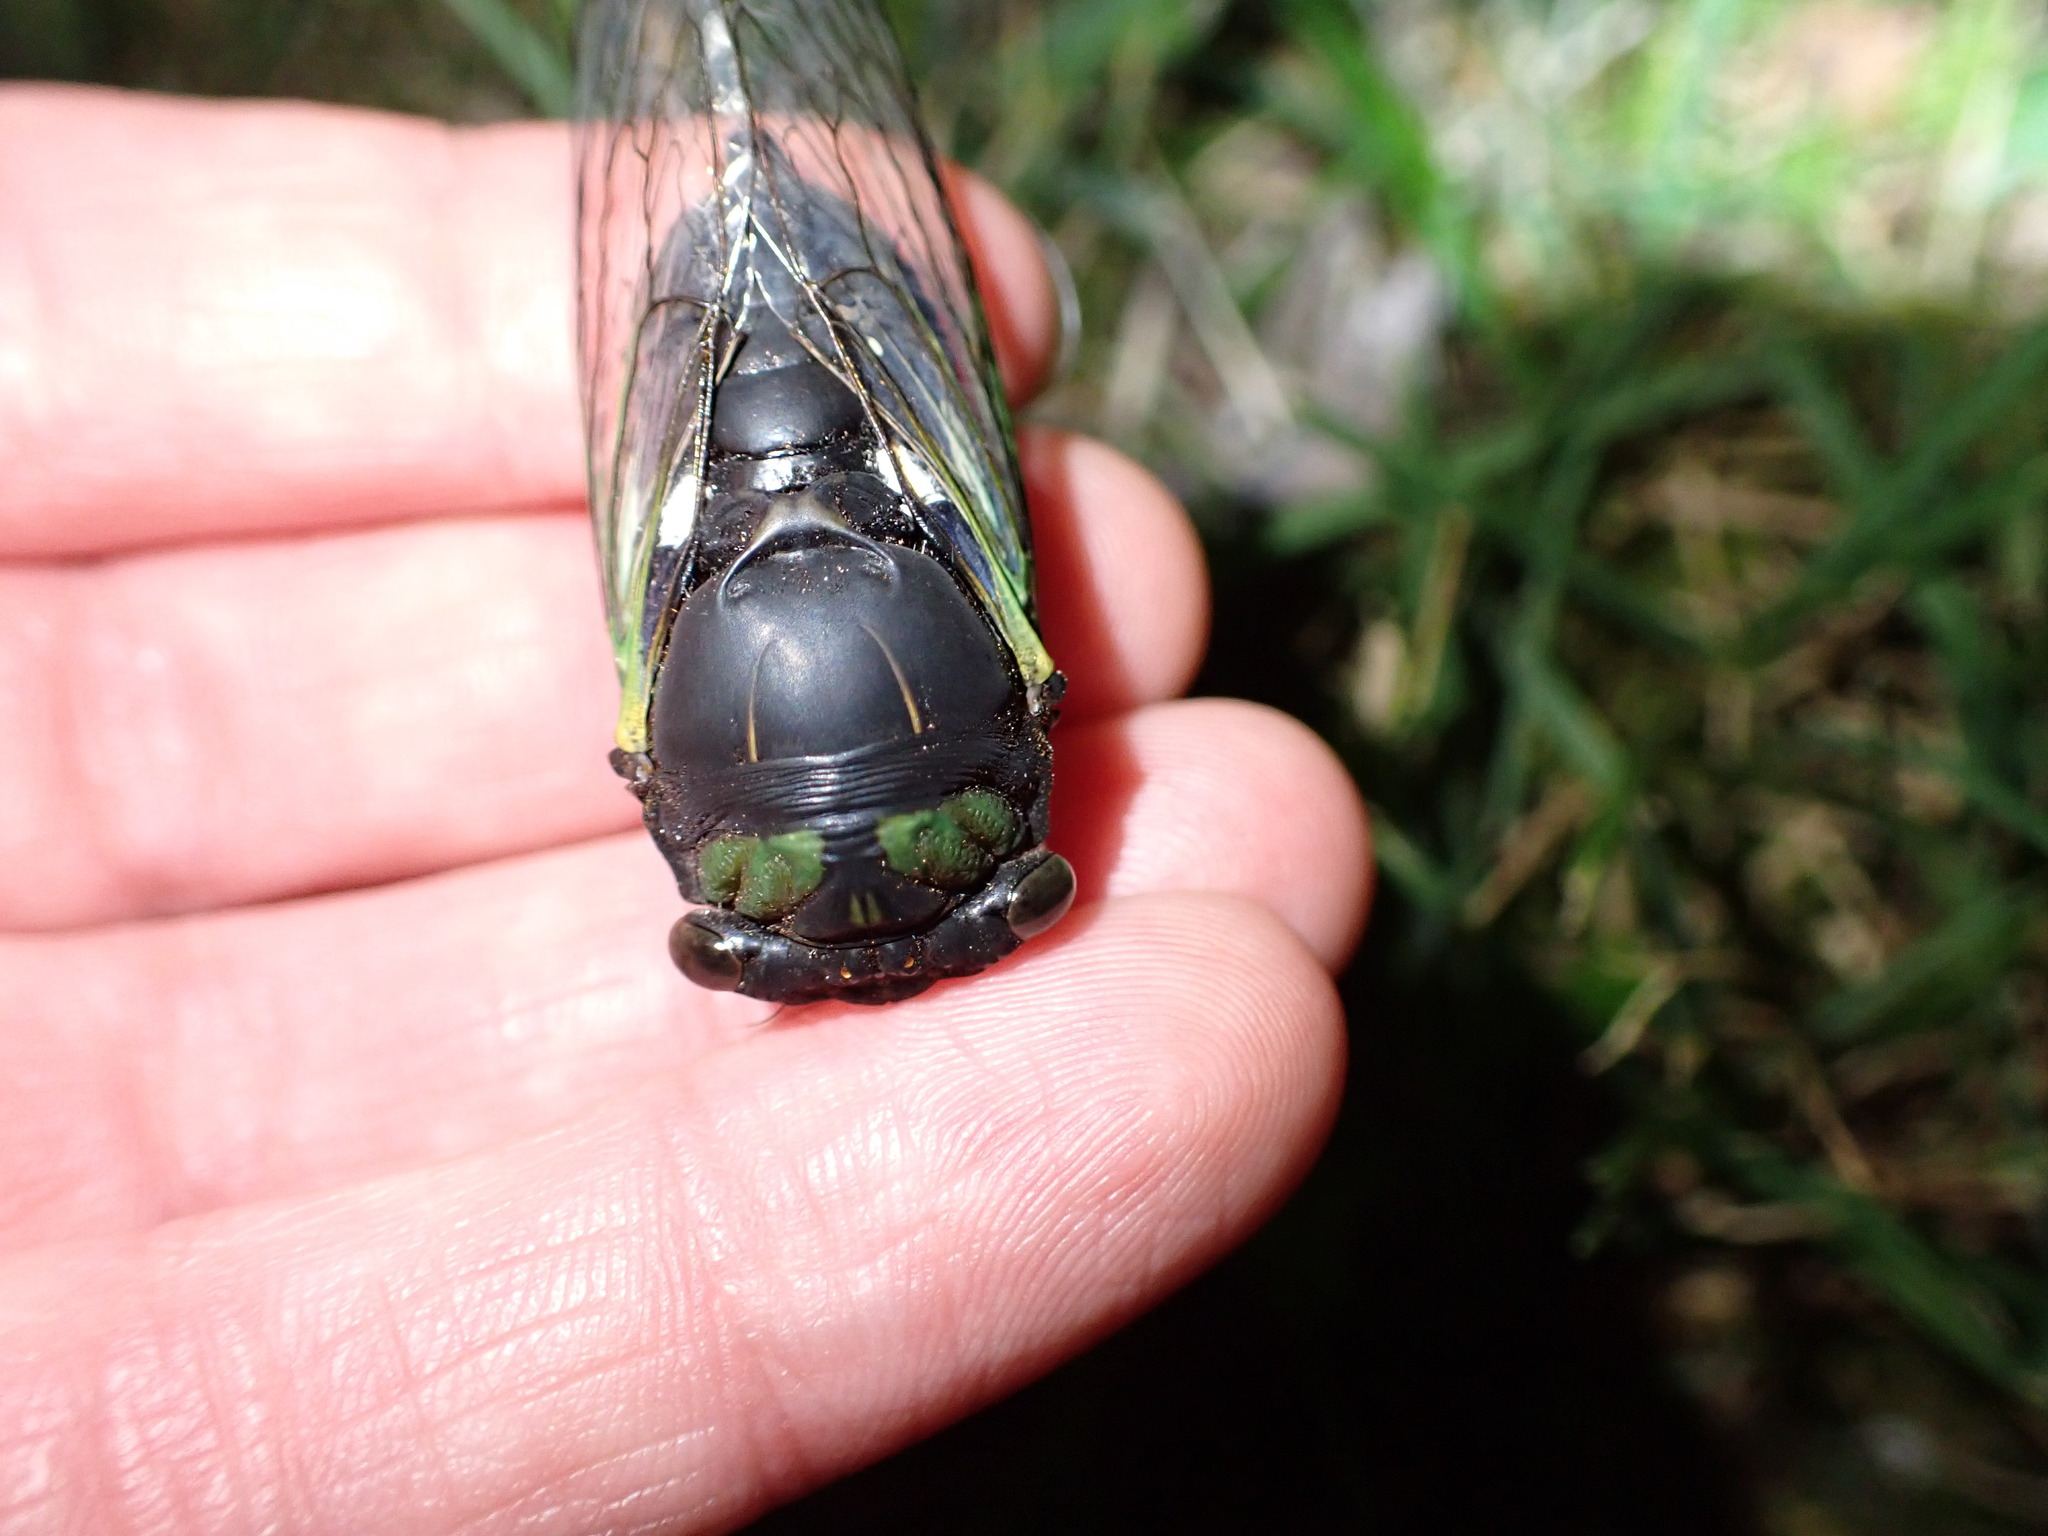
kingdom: Animalia
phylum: Arthropoda
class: Insecta
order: Hemiptera
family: Cicadidae
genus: Neotibicen
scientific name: Neotibicen tibicen
